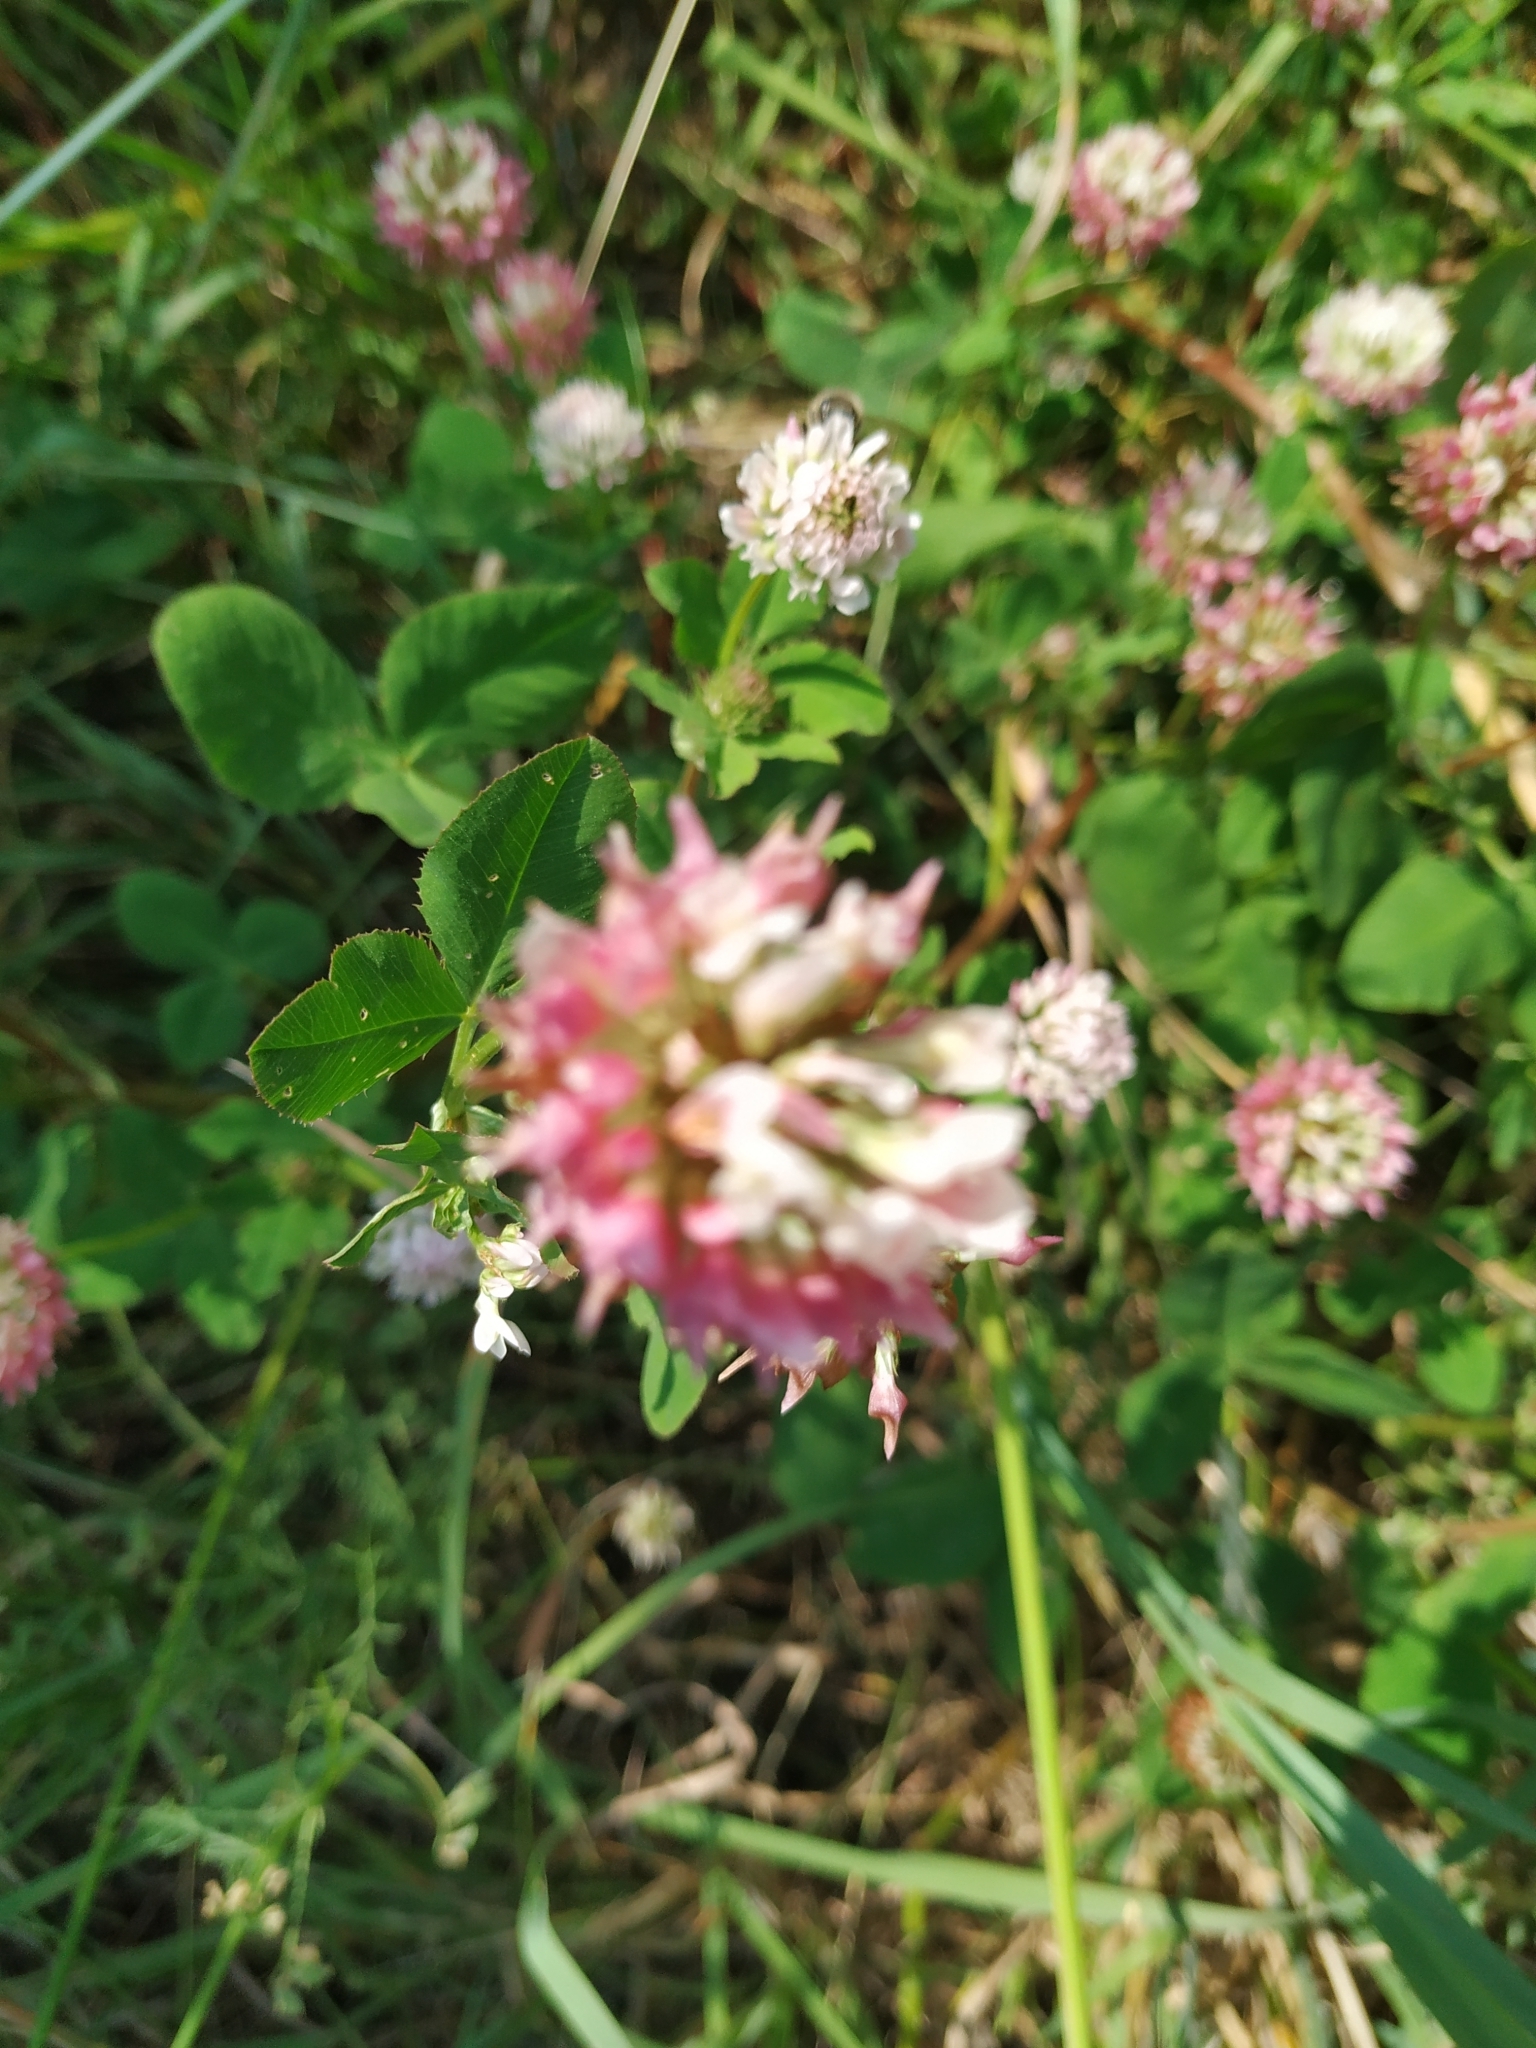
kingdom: Plantae
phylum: Tracheophyta
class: Magnoliopsida
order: Fabales
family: Fabaceae
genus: Trifolium
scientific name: Trifolium hybridum
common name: Alsike clover
